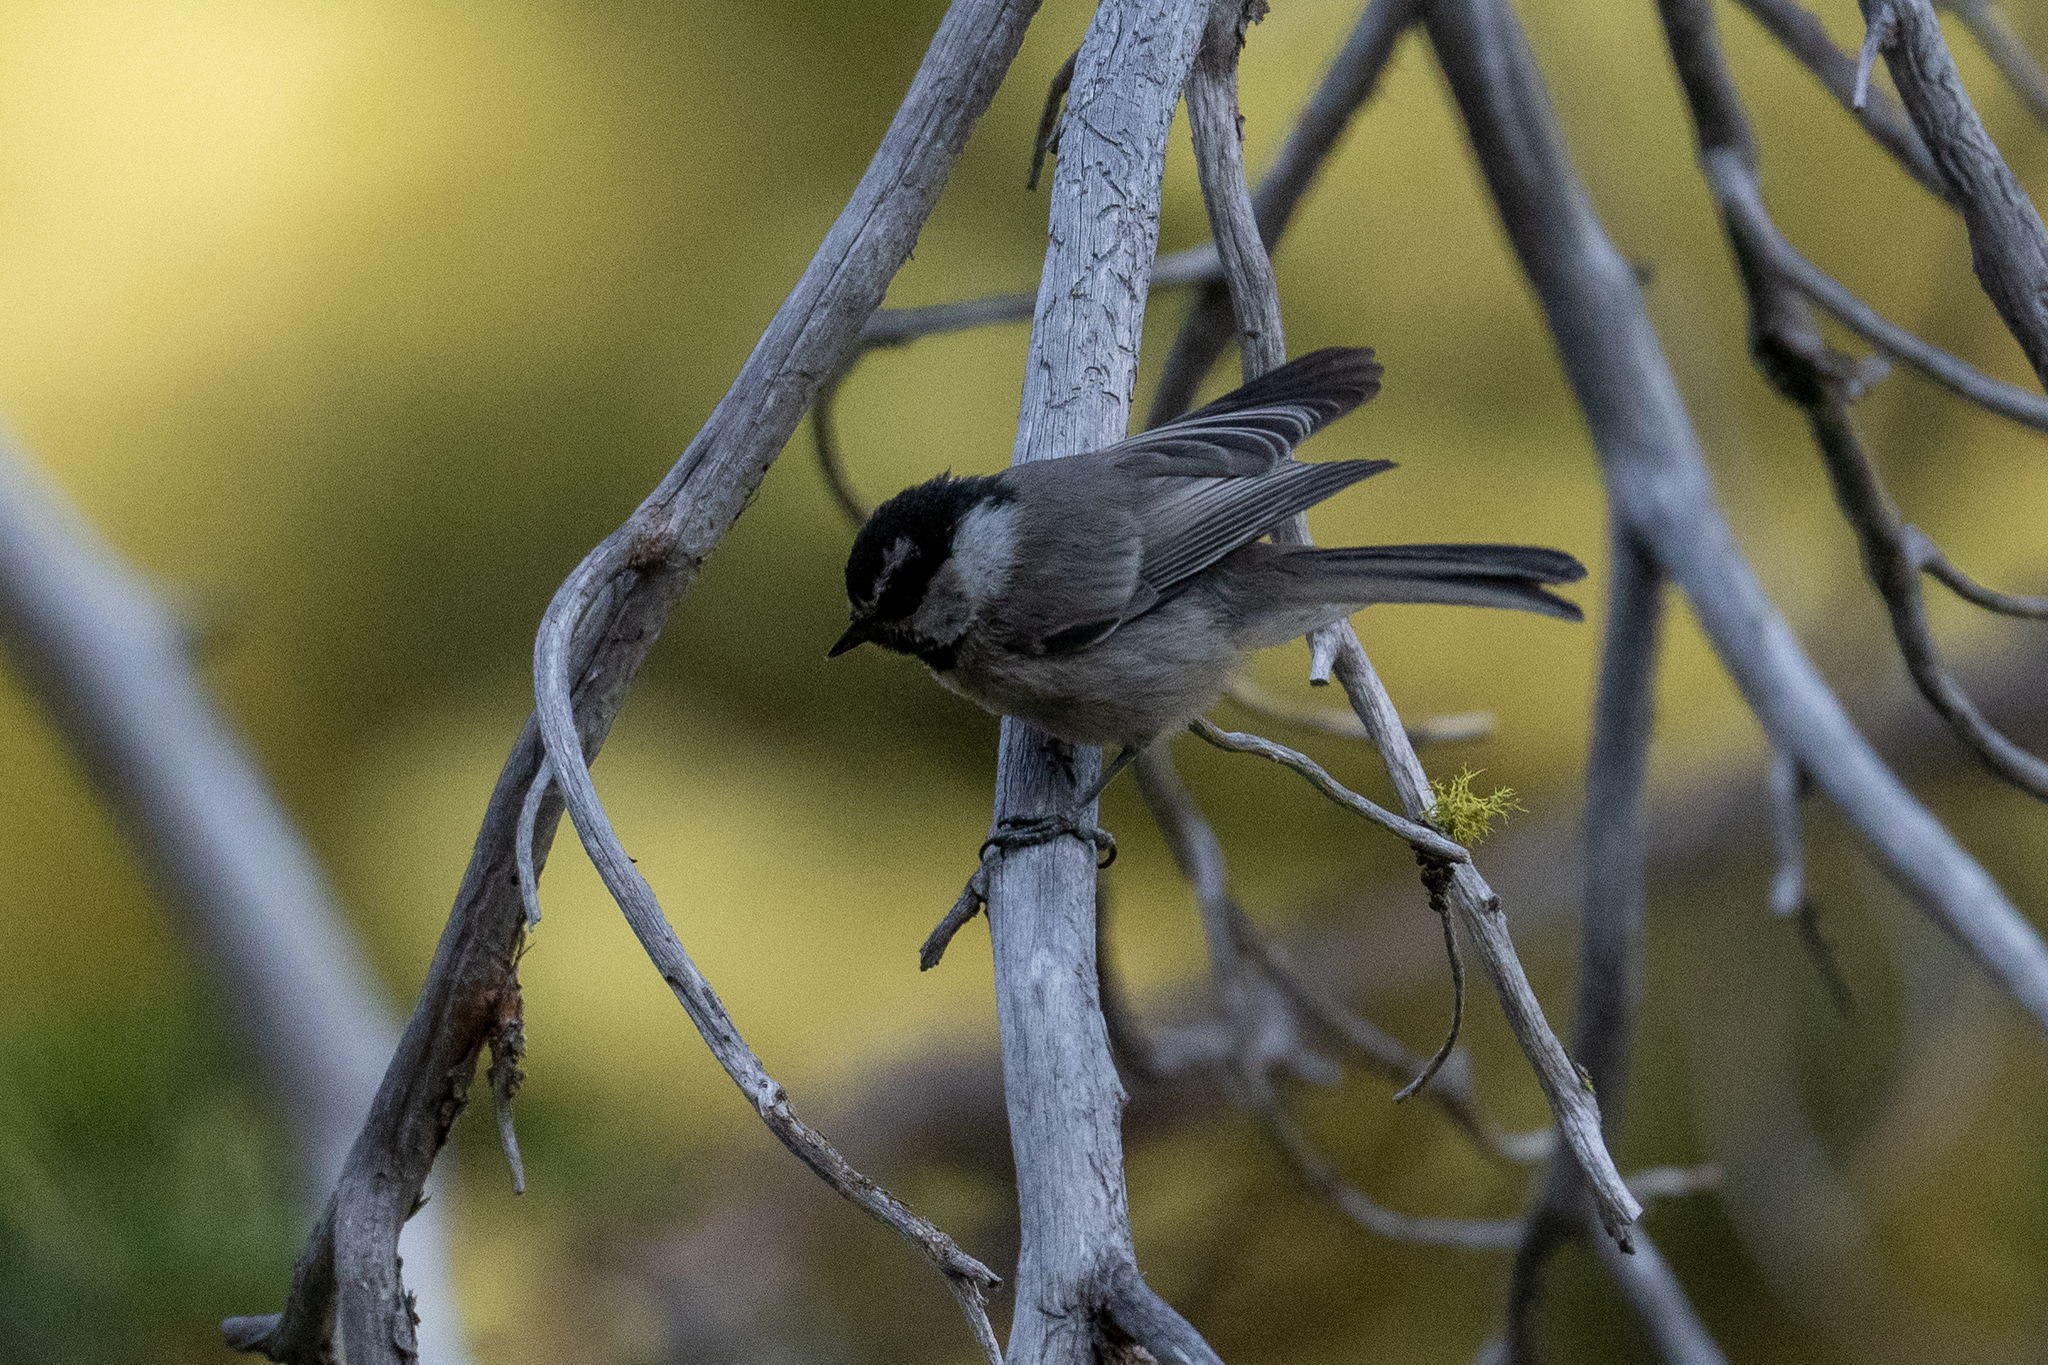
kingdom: Animalia
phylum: Chordata
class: Aves
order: Passeriformes
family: Paridae
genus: Poecile
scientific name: Poecile gambeli
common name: Mountain chickadee
